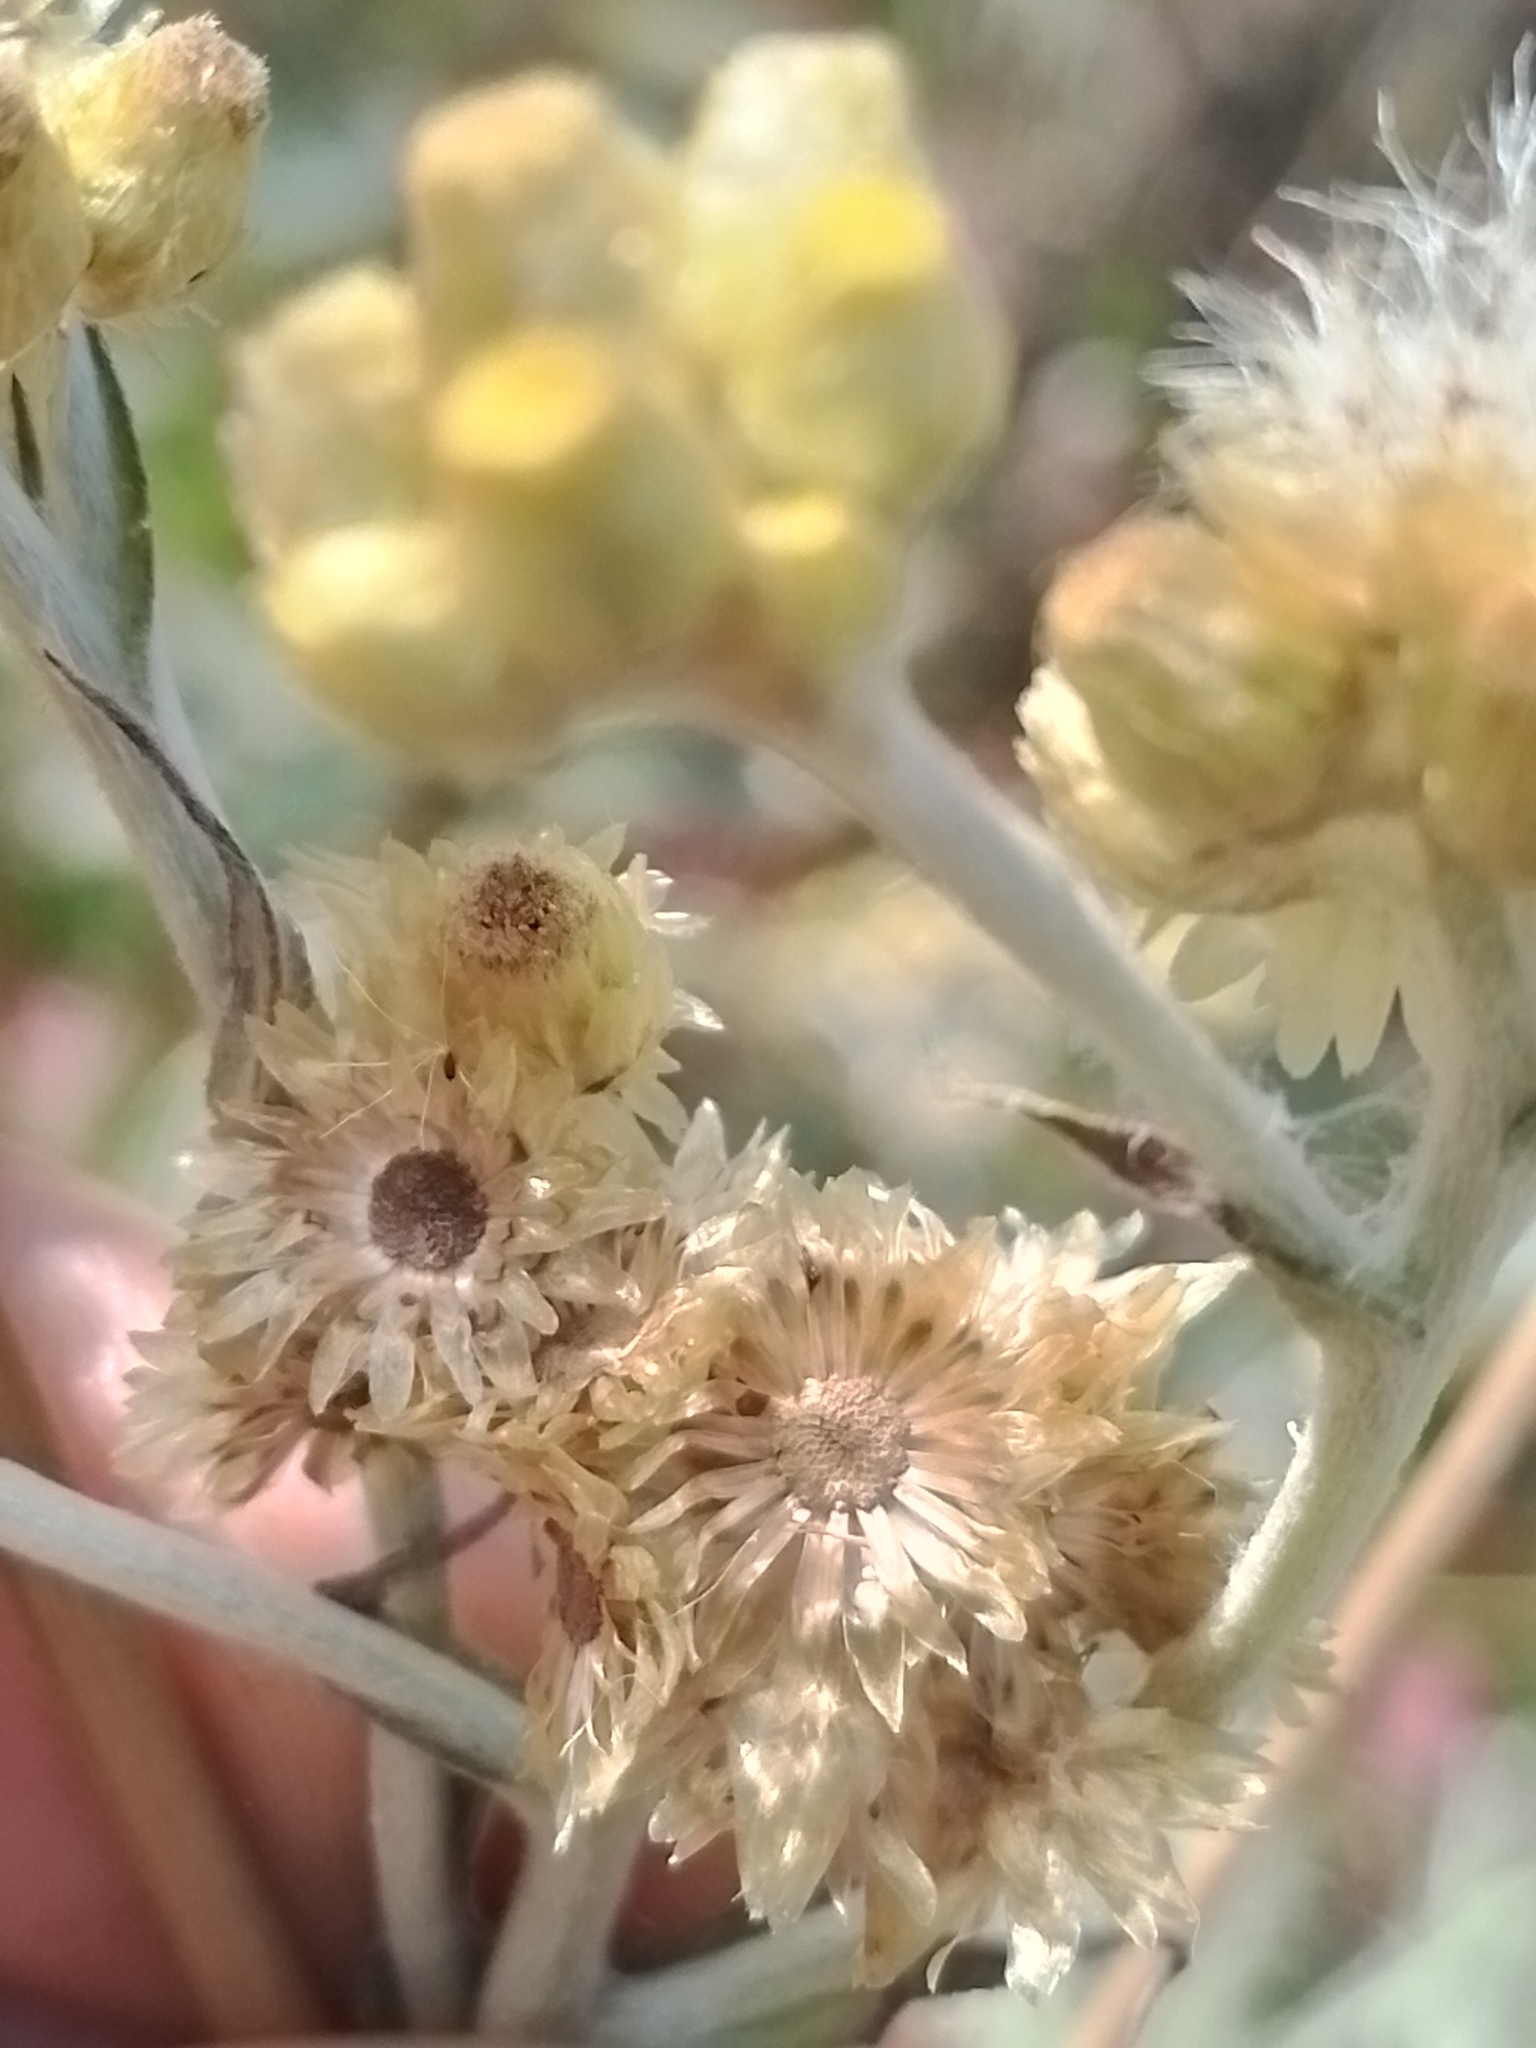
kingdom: Plantae
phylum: Tracheophyta
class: Magnoliopsida
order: Asterales
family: Asteraceae
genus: Pseudognaphalium
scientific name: Pseudognaphalium cheiranthifolium
